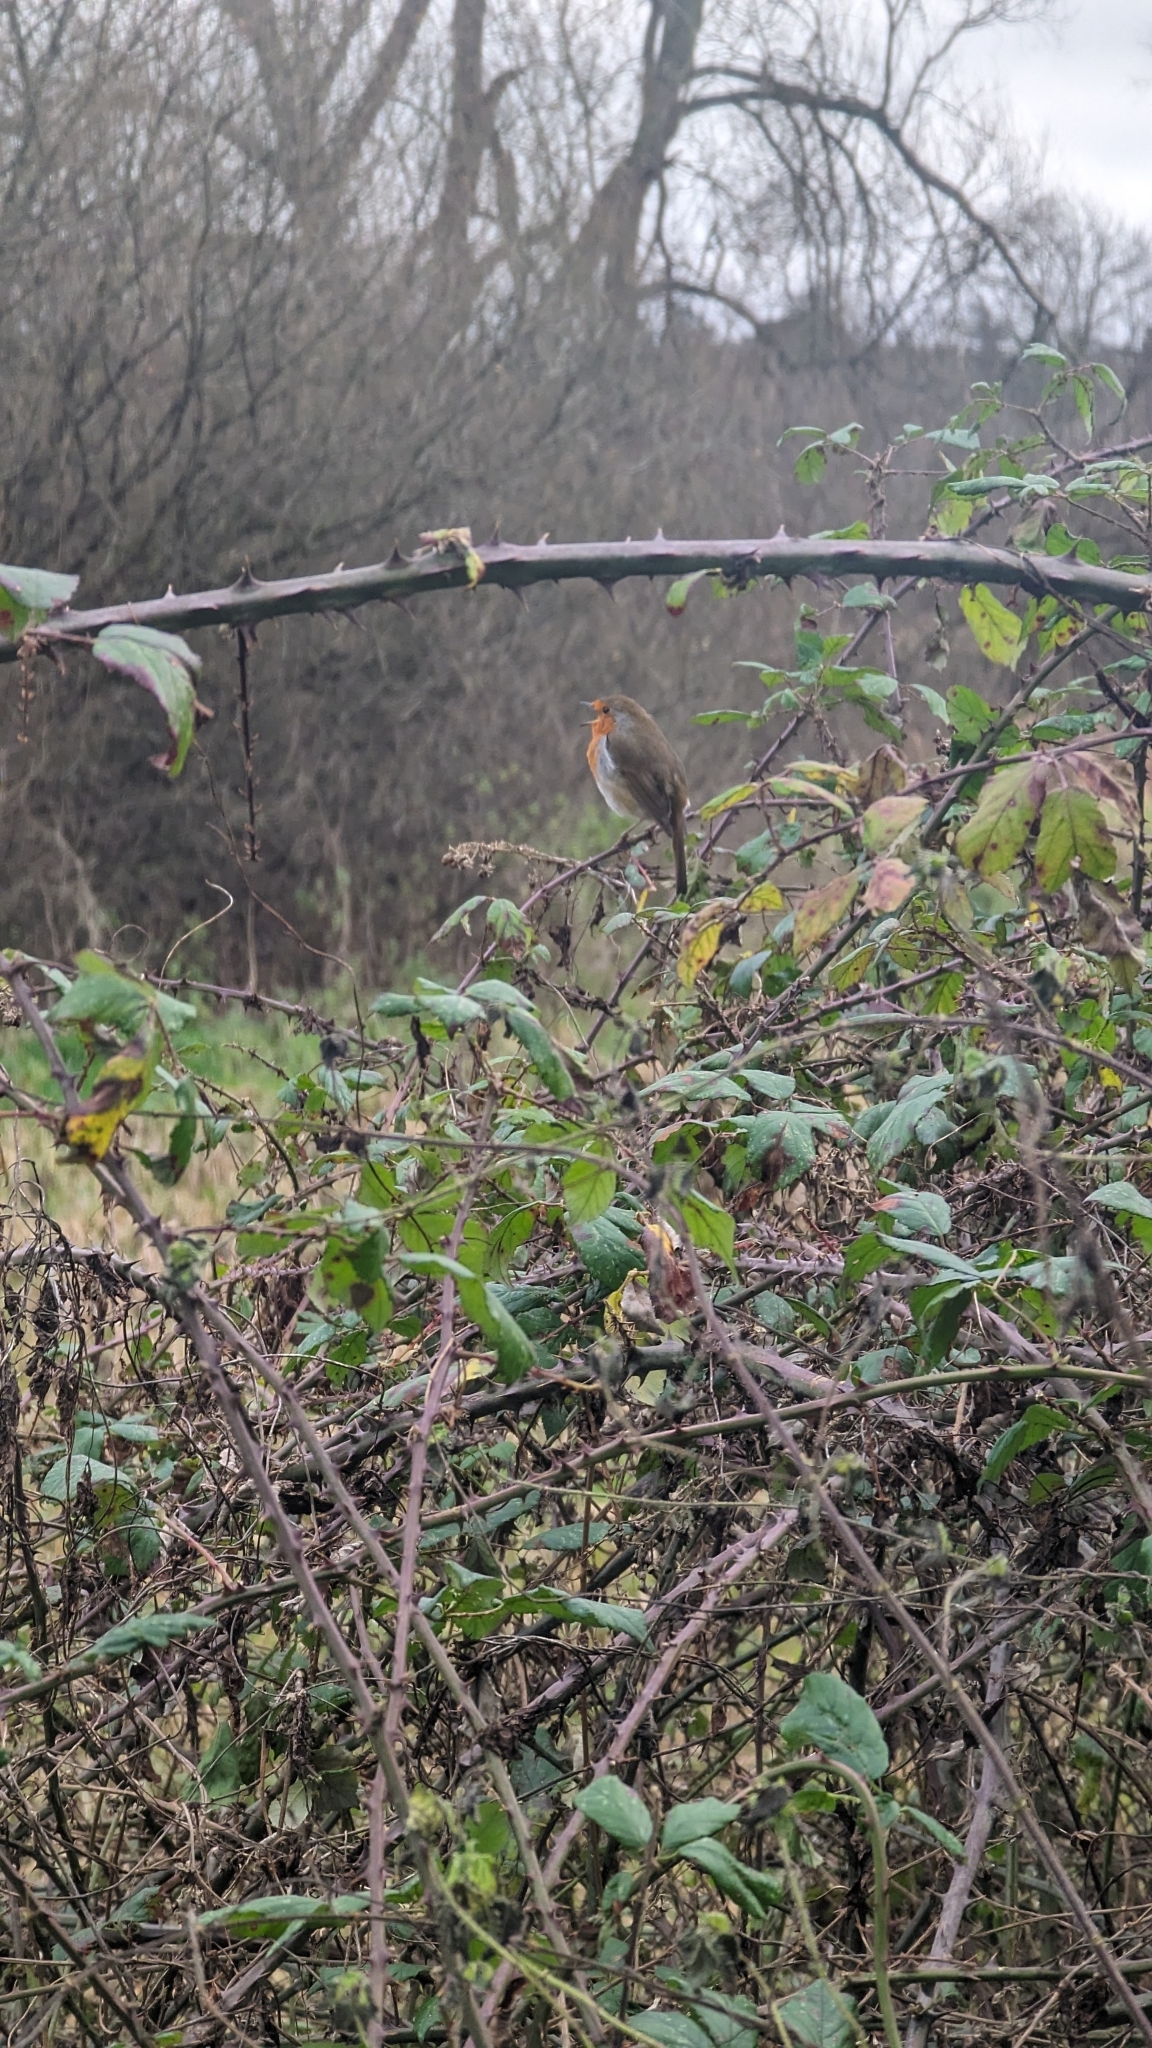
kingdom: Animalia
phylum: Chordata
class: Aves
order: Passeriformes
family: Muscicapidae
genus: Erithacus
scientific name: Erithacus rubecula
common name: European robin
